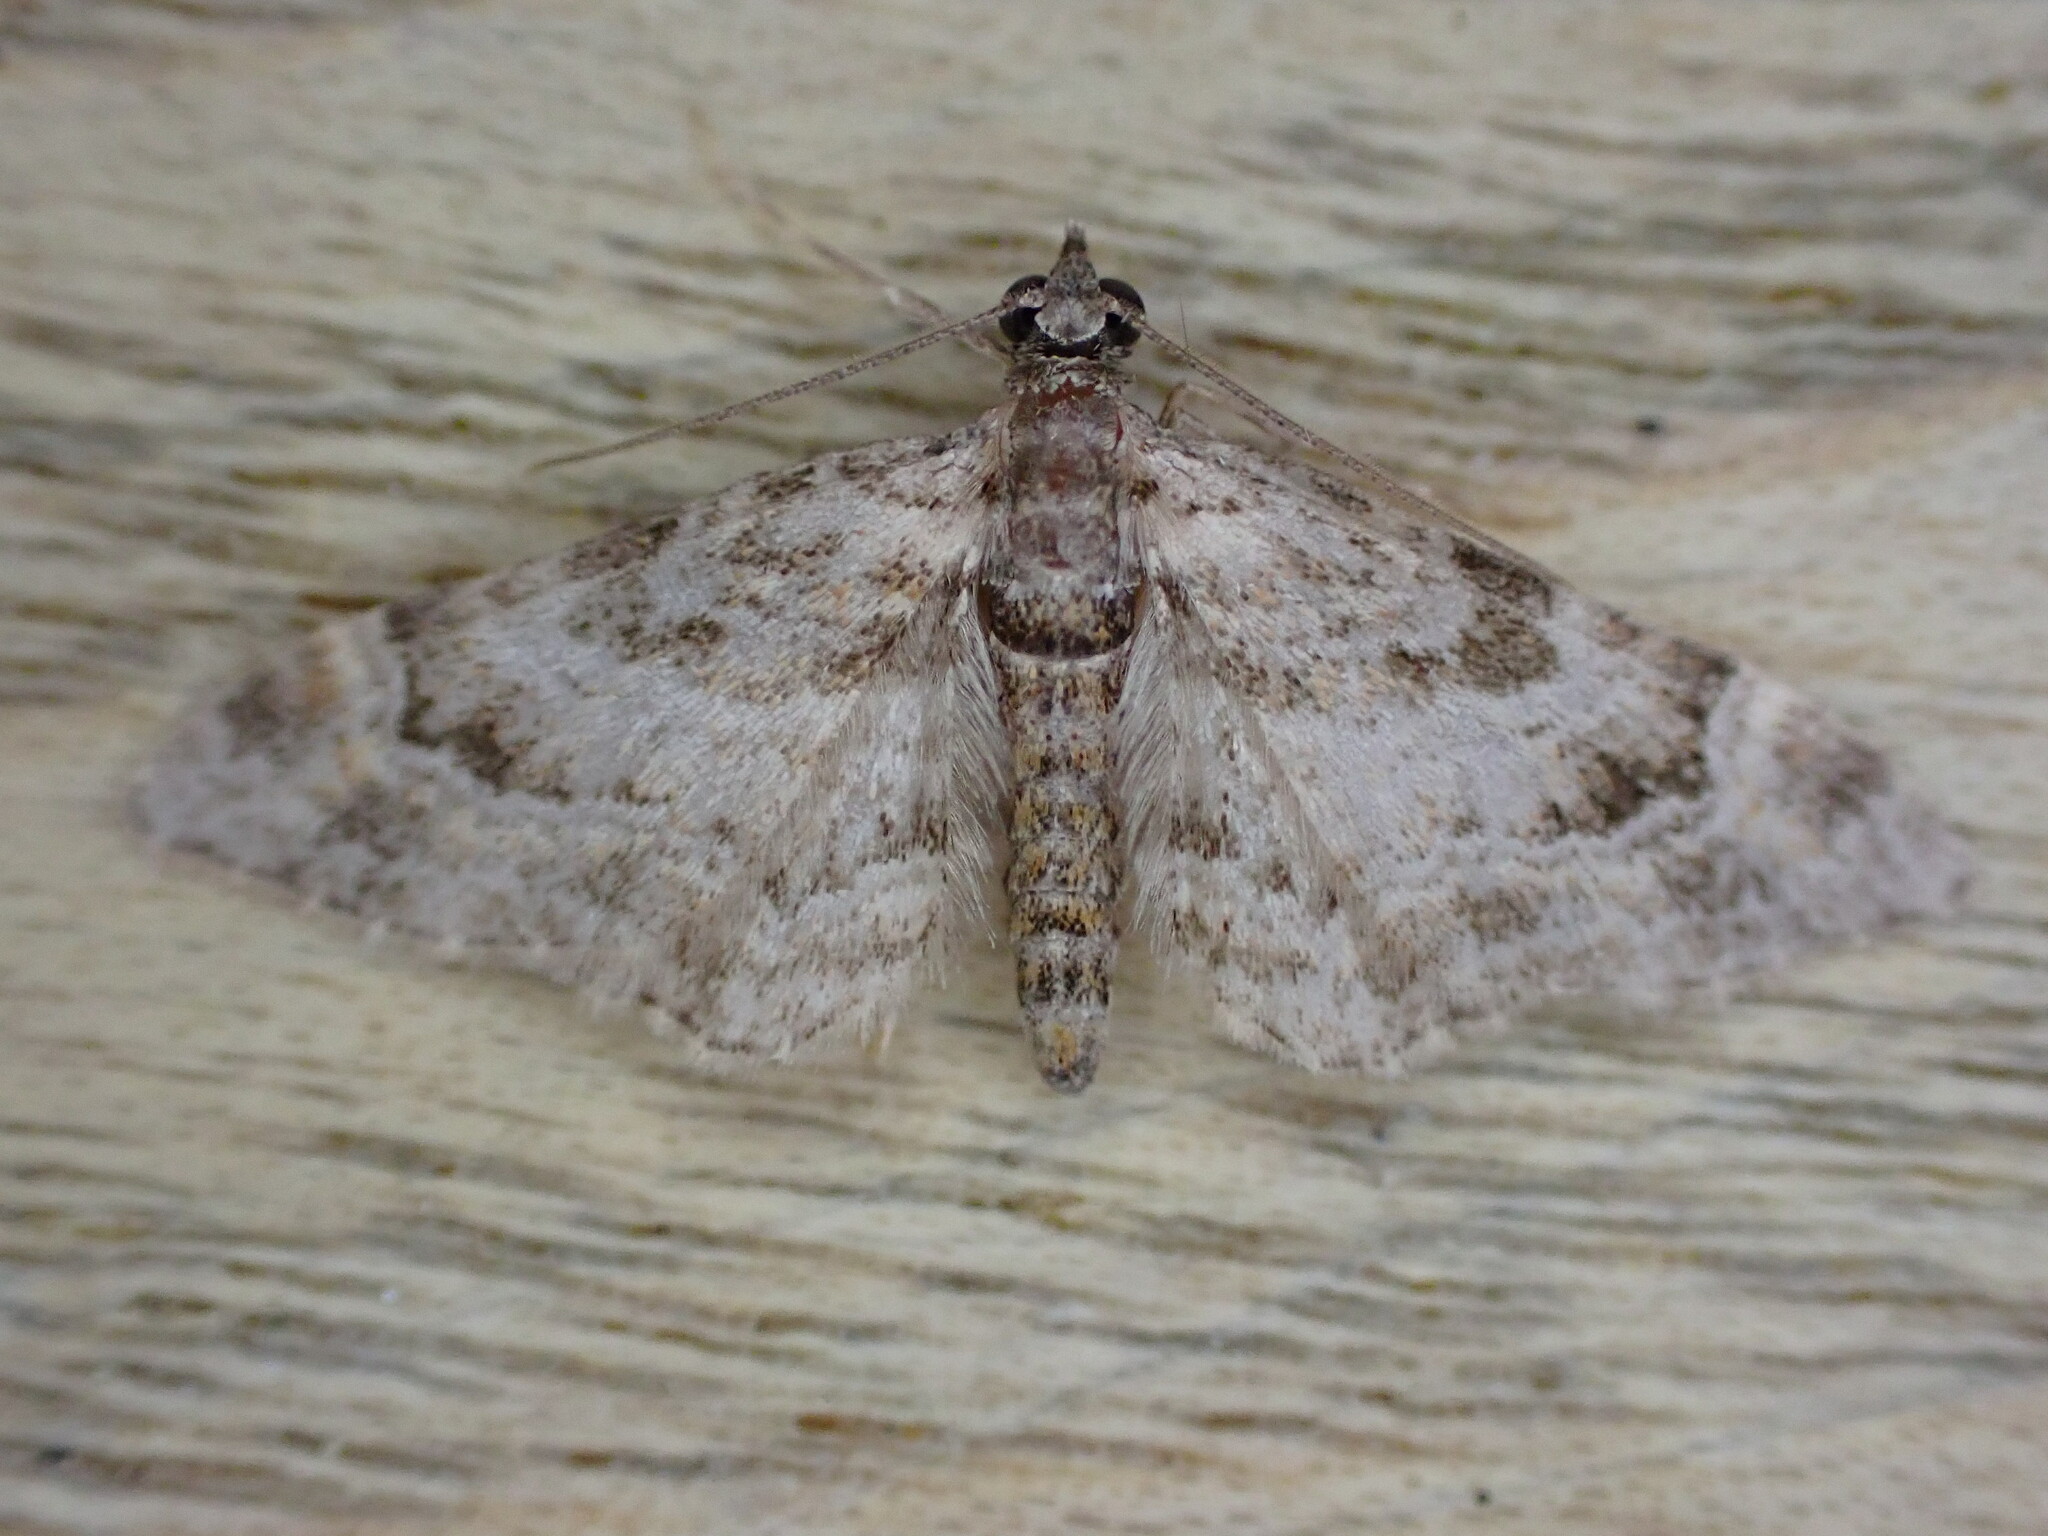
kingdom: Animalia
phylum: Arthropoda
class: Insecta
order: Lepidoptera
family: Geometridae
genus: Gymnoscelis
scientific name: Gymnoscelis rufifasciata
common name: Double-striped pug
